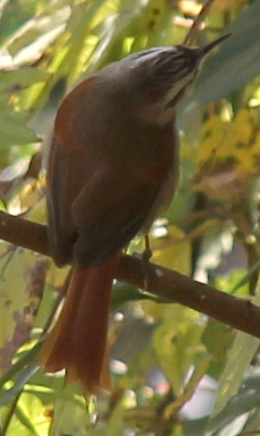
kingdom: Animalia
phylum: Chordata
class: Aves
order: Passeriformes
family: Furnariidae
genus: Cranioleuca
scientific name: Cranioleuca pyrrhophia
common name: Stripe-crowned spinetail
